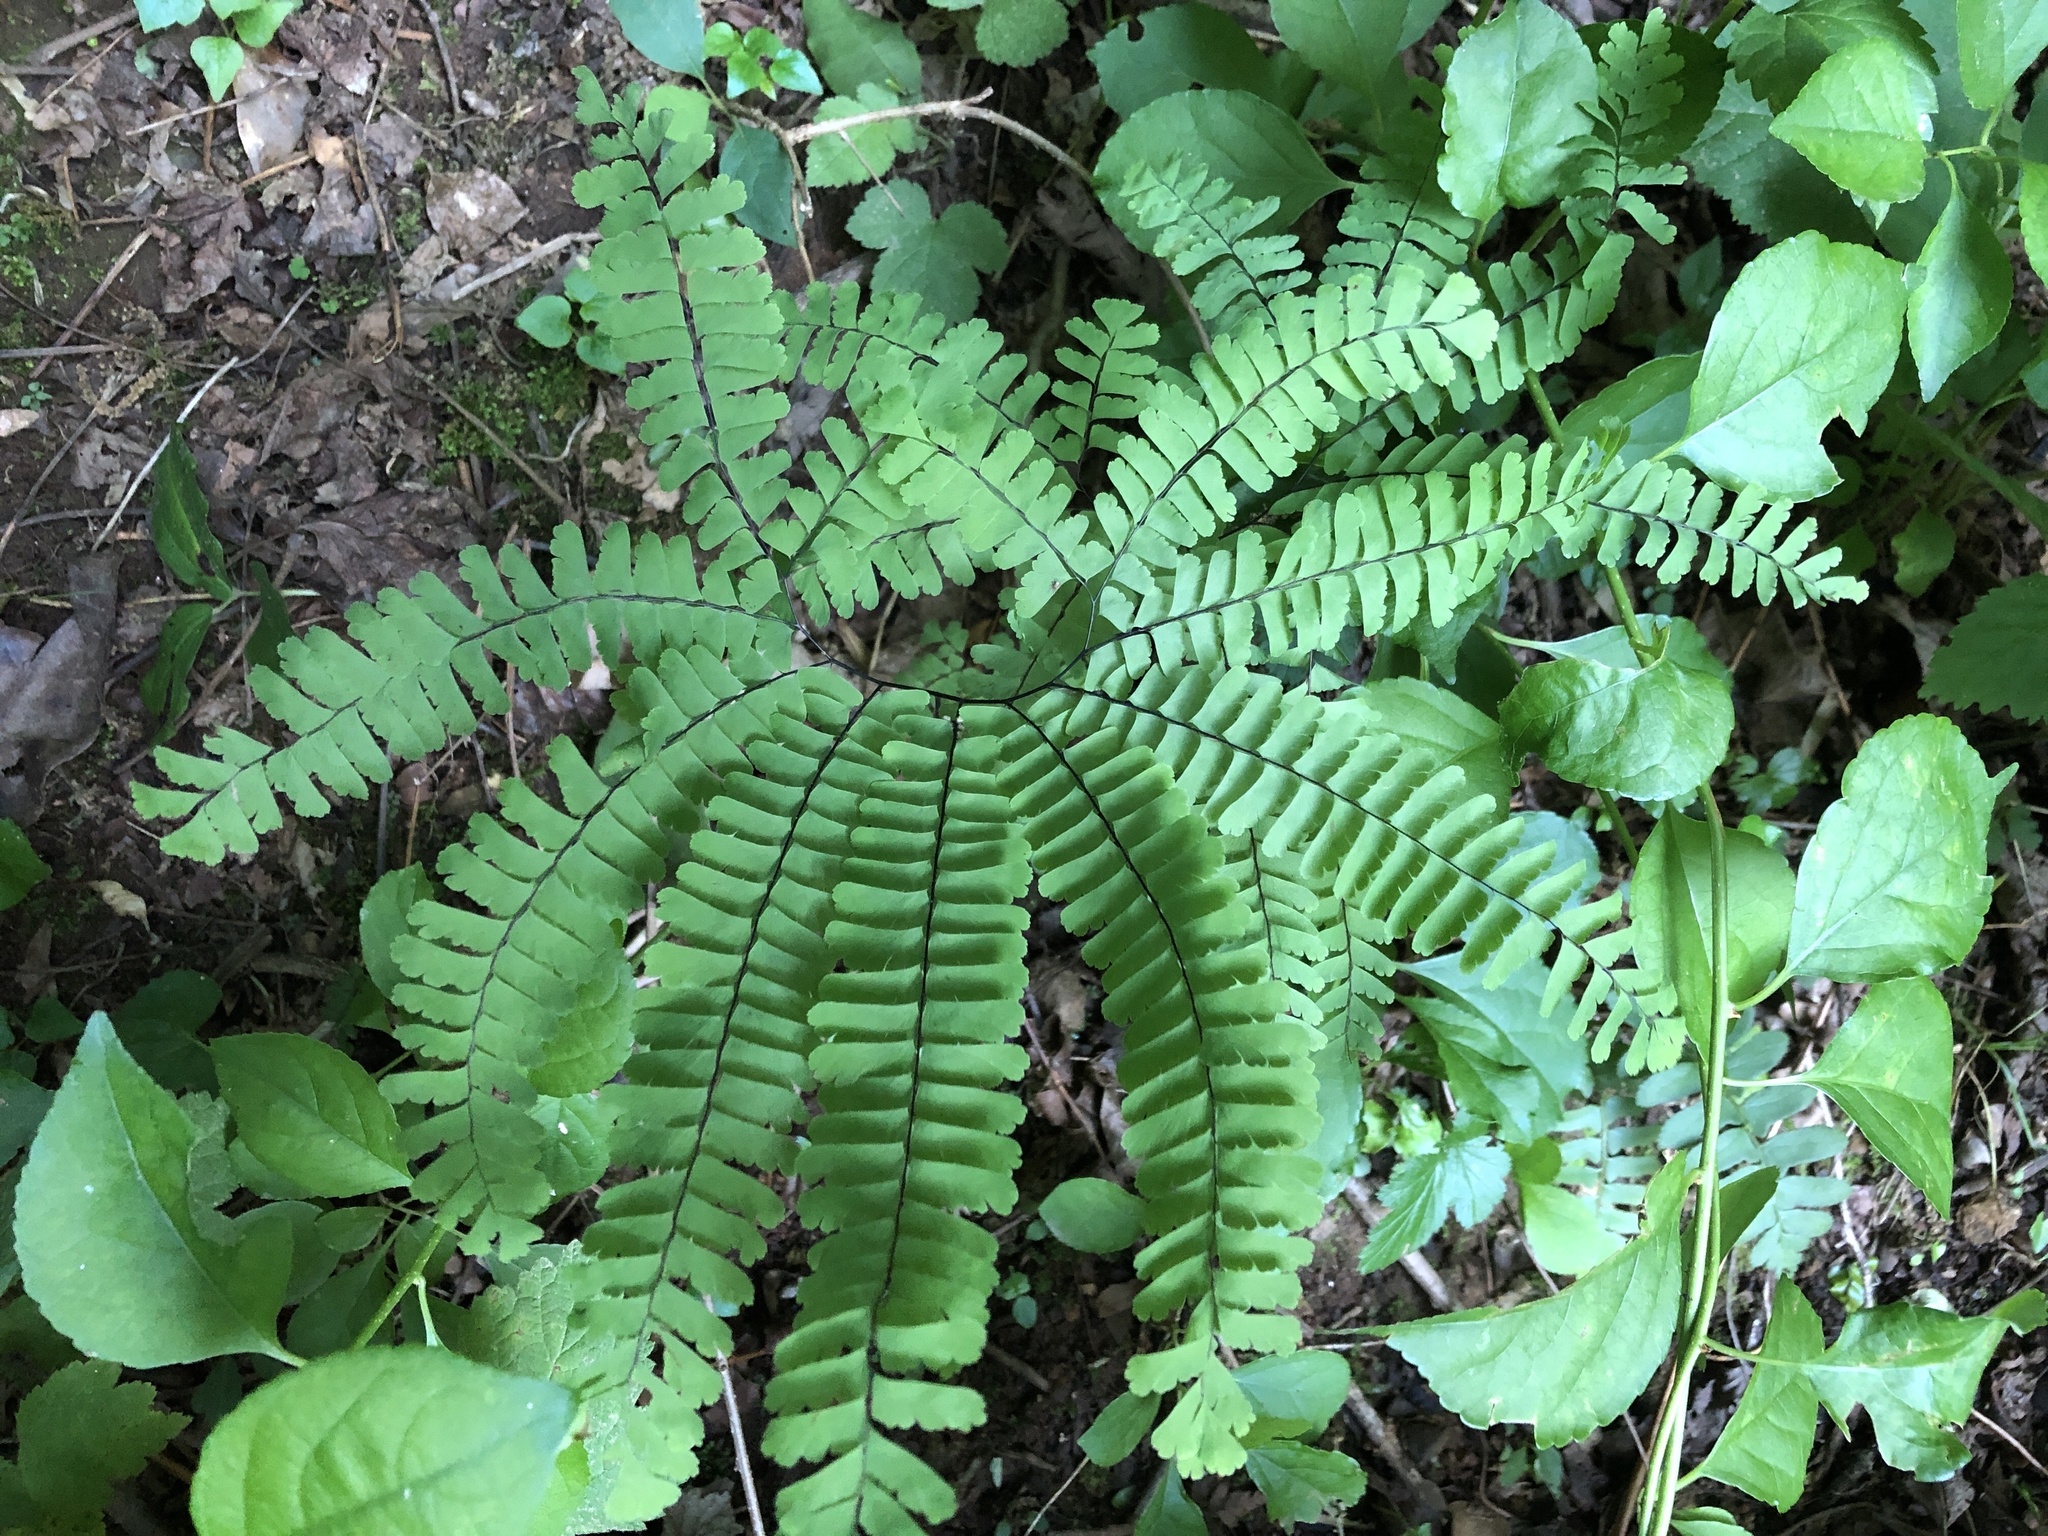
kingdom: Plantae
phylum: Tracheophyta
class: Polypodiopsida
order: Polypodiales
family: Pteridaceae
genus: Adiantum
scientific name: Adiantum pedatum
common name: Five-finger fern
